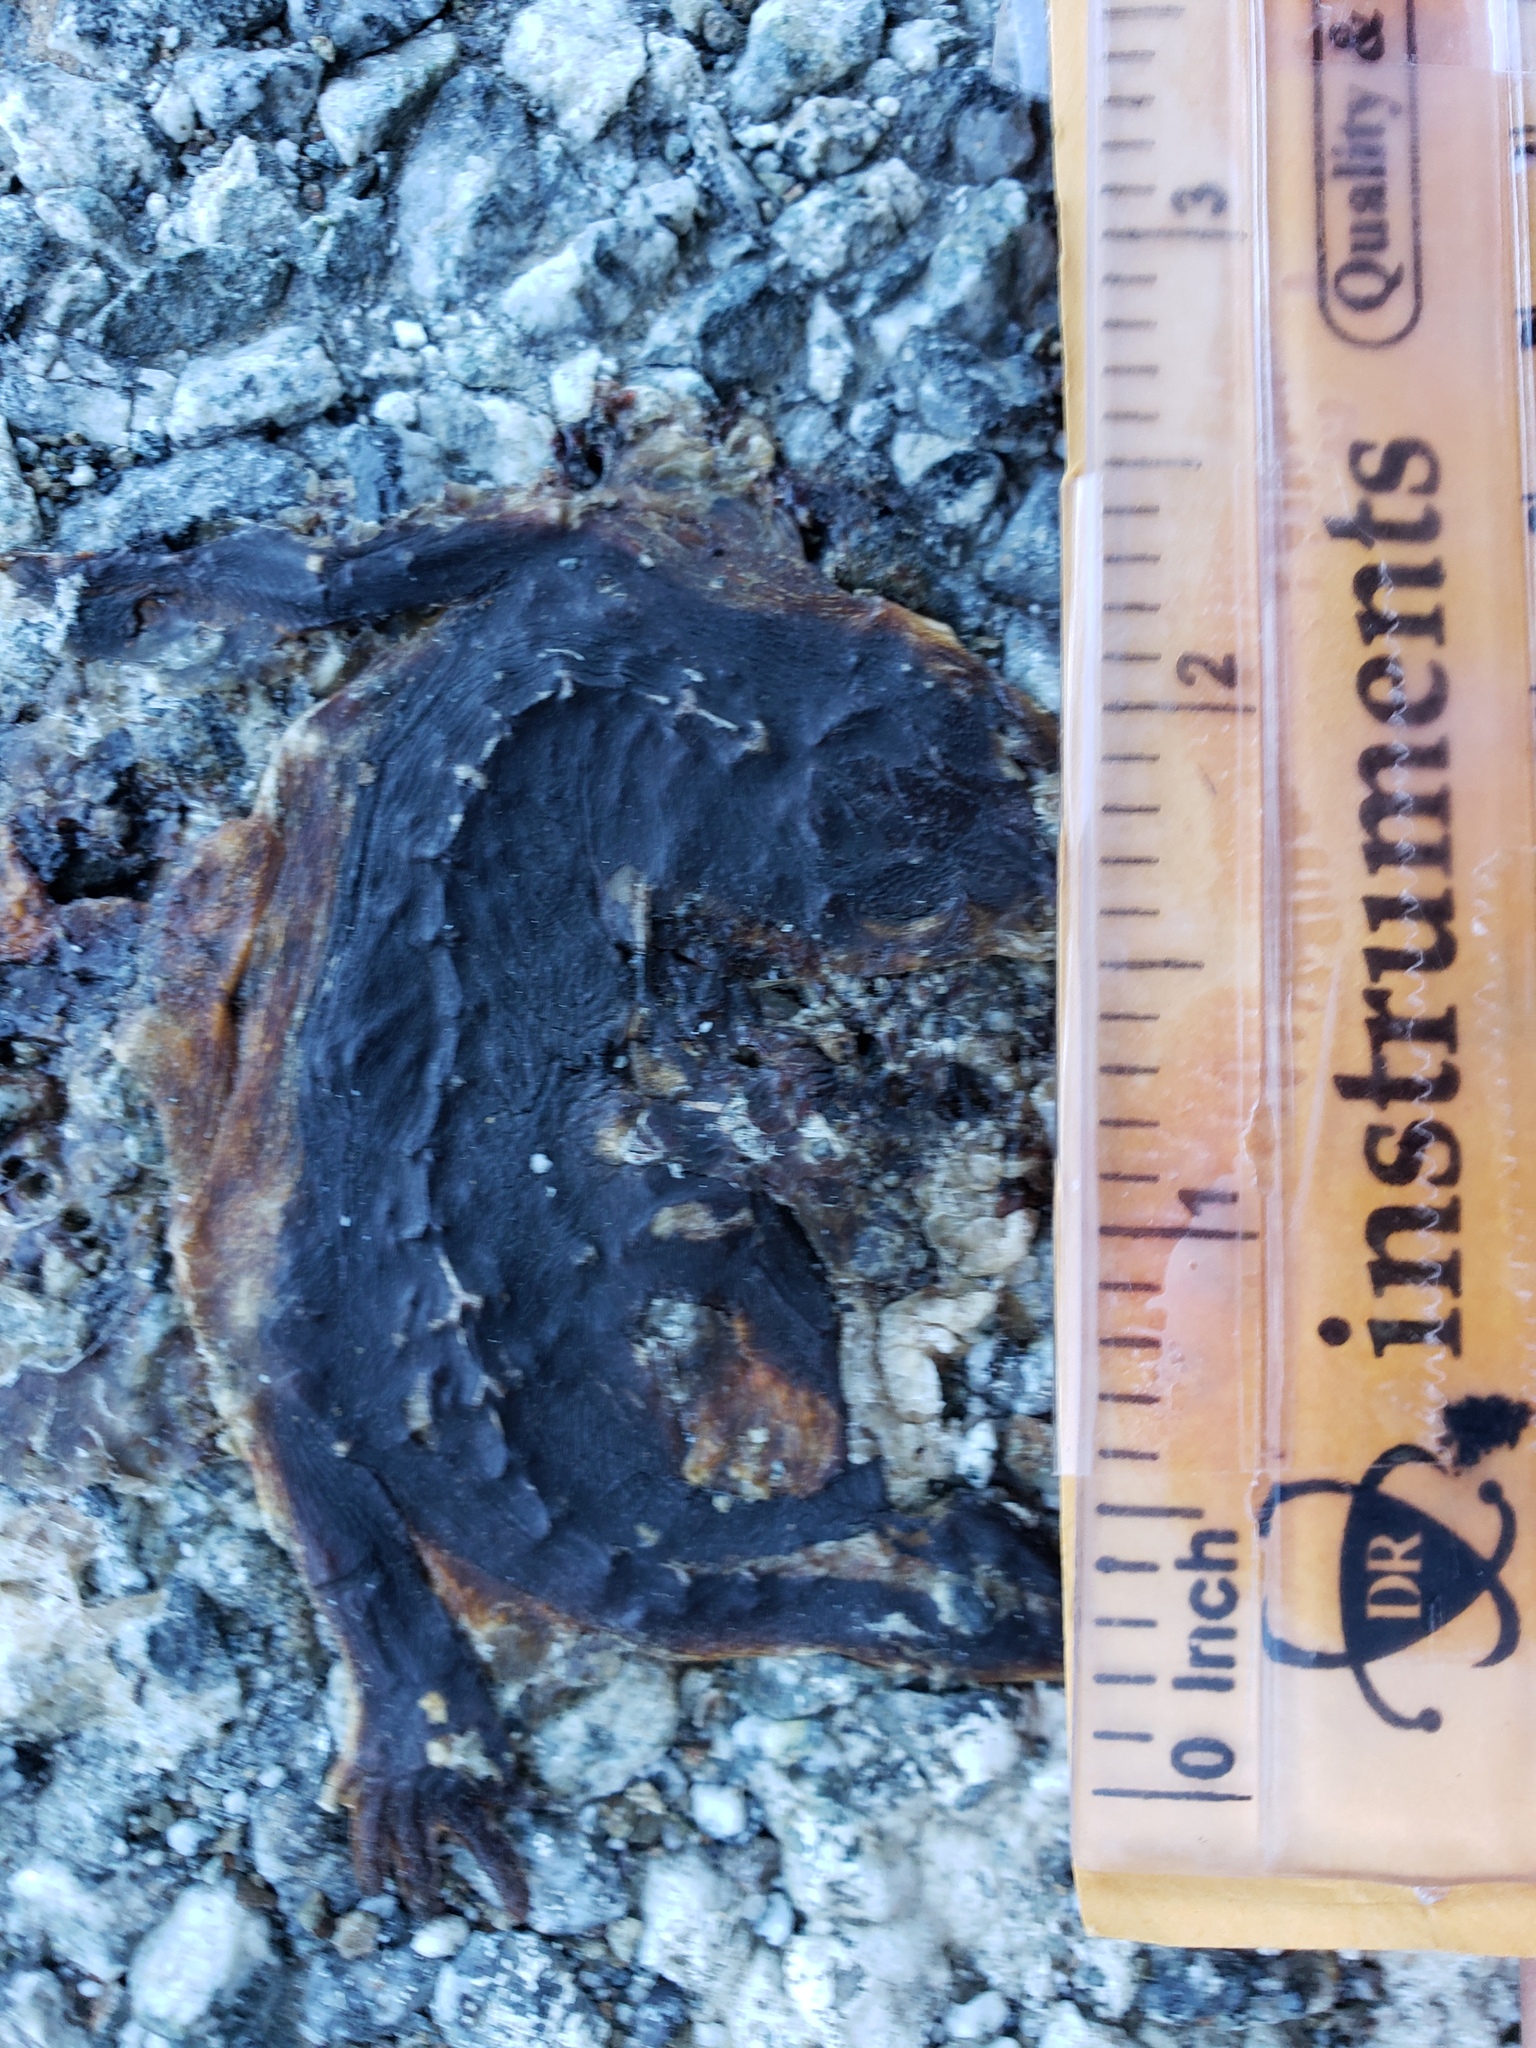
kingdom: Animalia
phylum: Chordata
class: Amphibia
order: Caudata
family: Salamandridae
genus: Taricha
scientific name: Taricha
